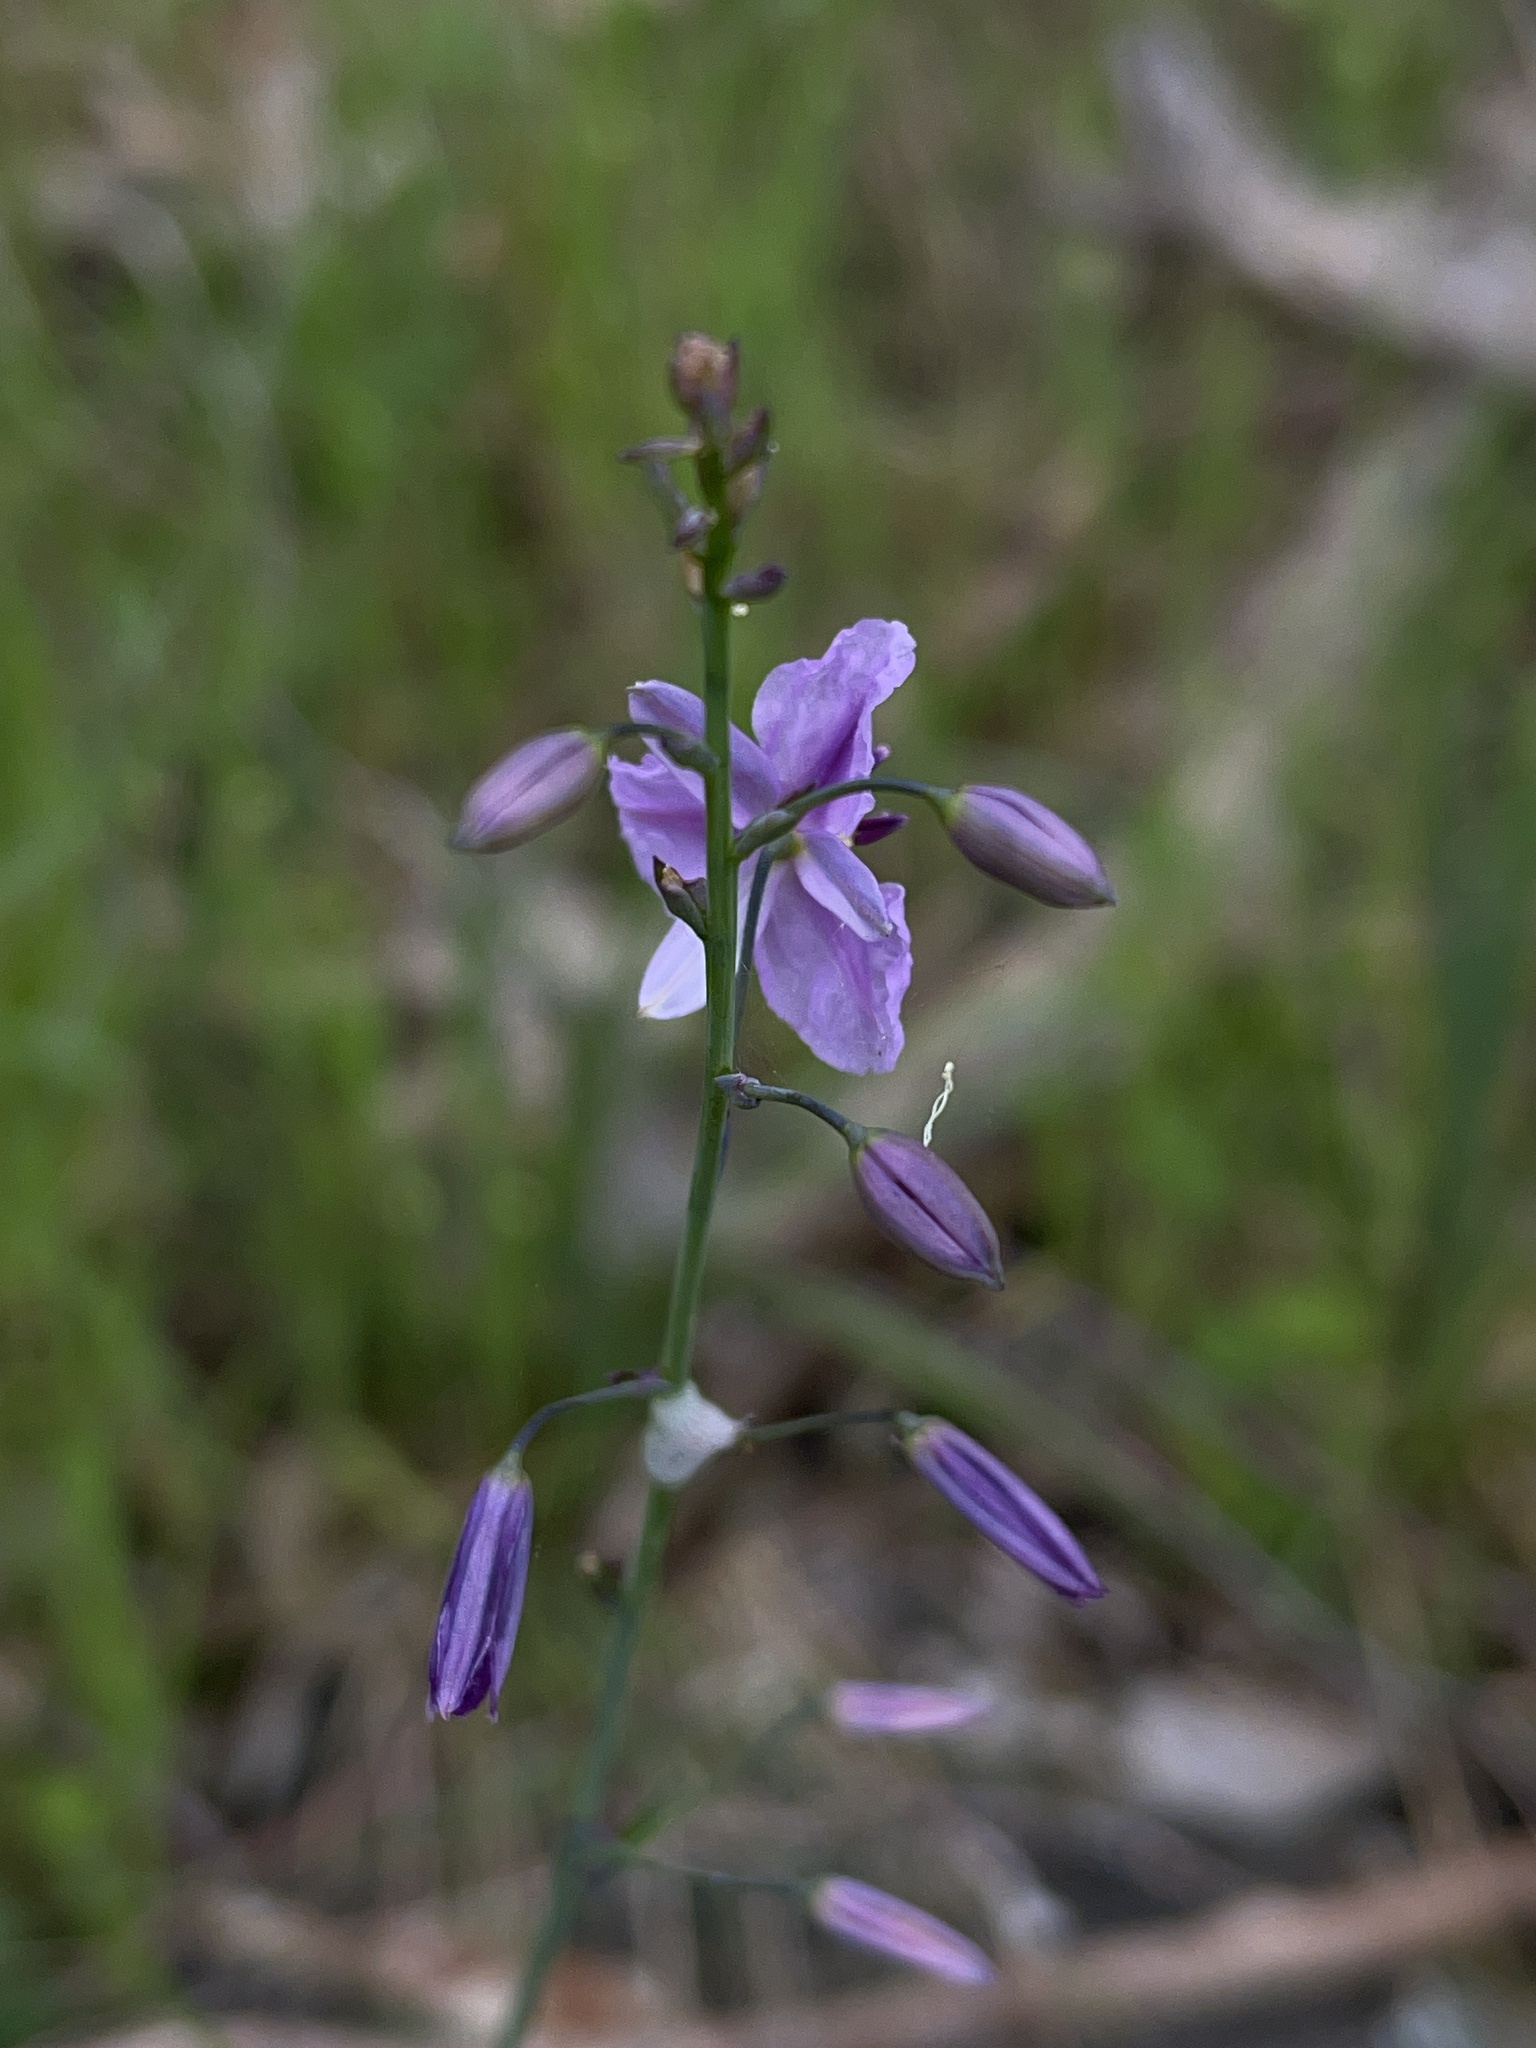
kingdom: Plantae
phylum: Tracheophyta
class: Liliopsida
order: Asparagales
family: Asparagaceae
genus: Arthropodium
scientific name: Arthropodium strictum
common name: Chocolate-lily
